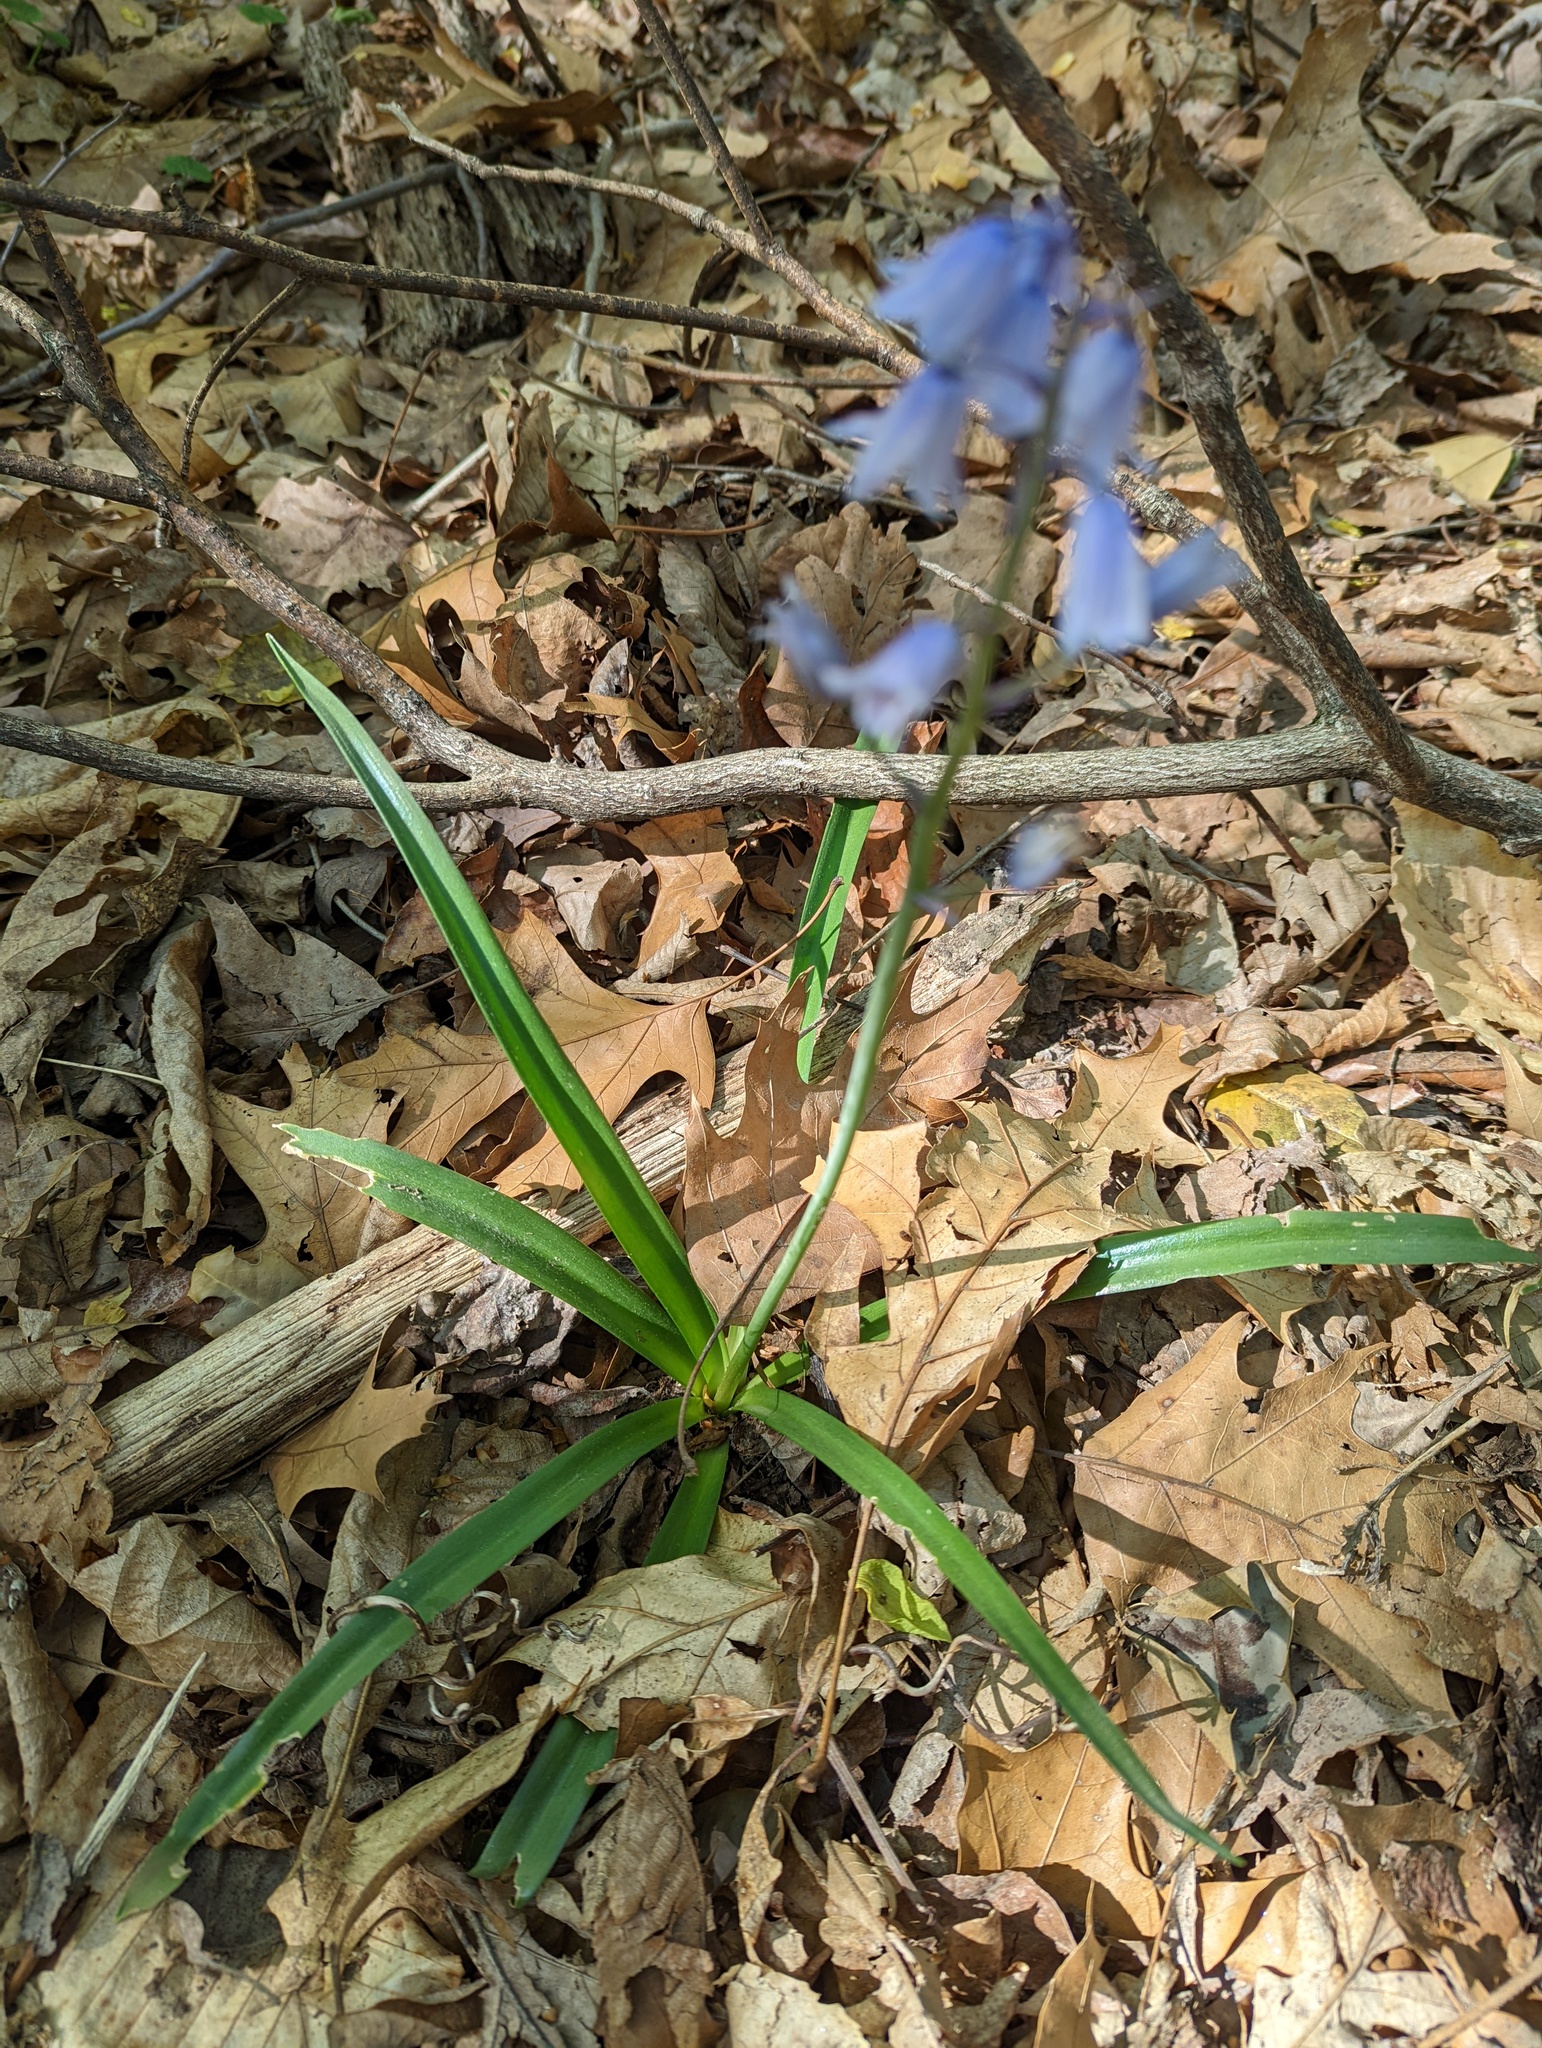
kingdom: Plantae
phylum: Tracheophyta
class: Liliopsida
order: Asparagales
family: Asparagaceae
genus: Hyacinthoides
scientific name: Hyacinthoides hispanica
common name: Spanish bluebell
